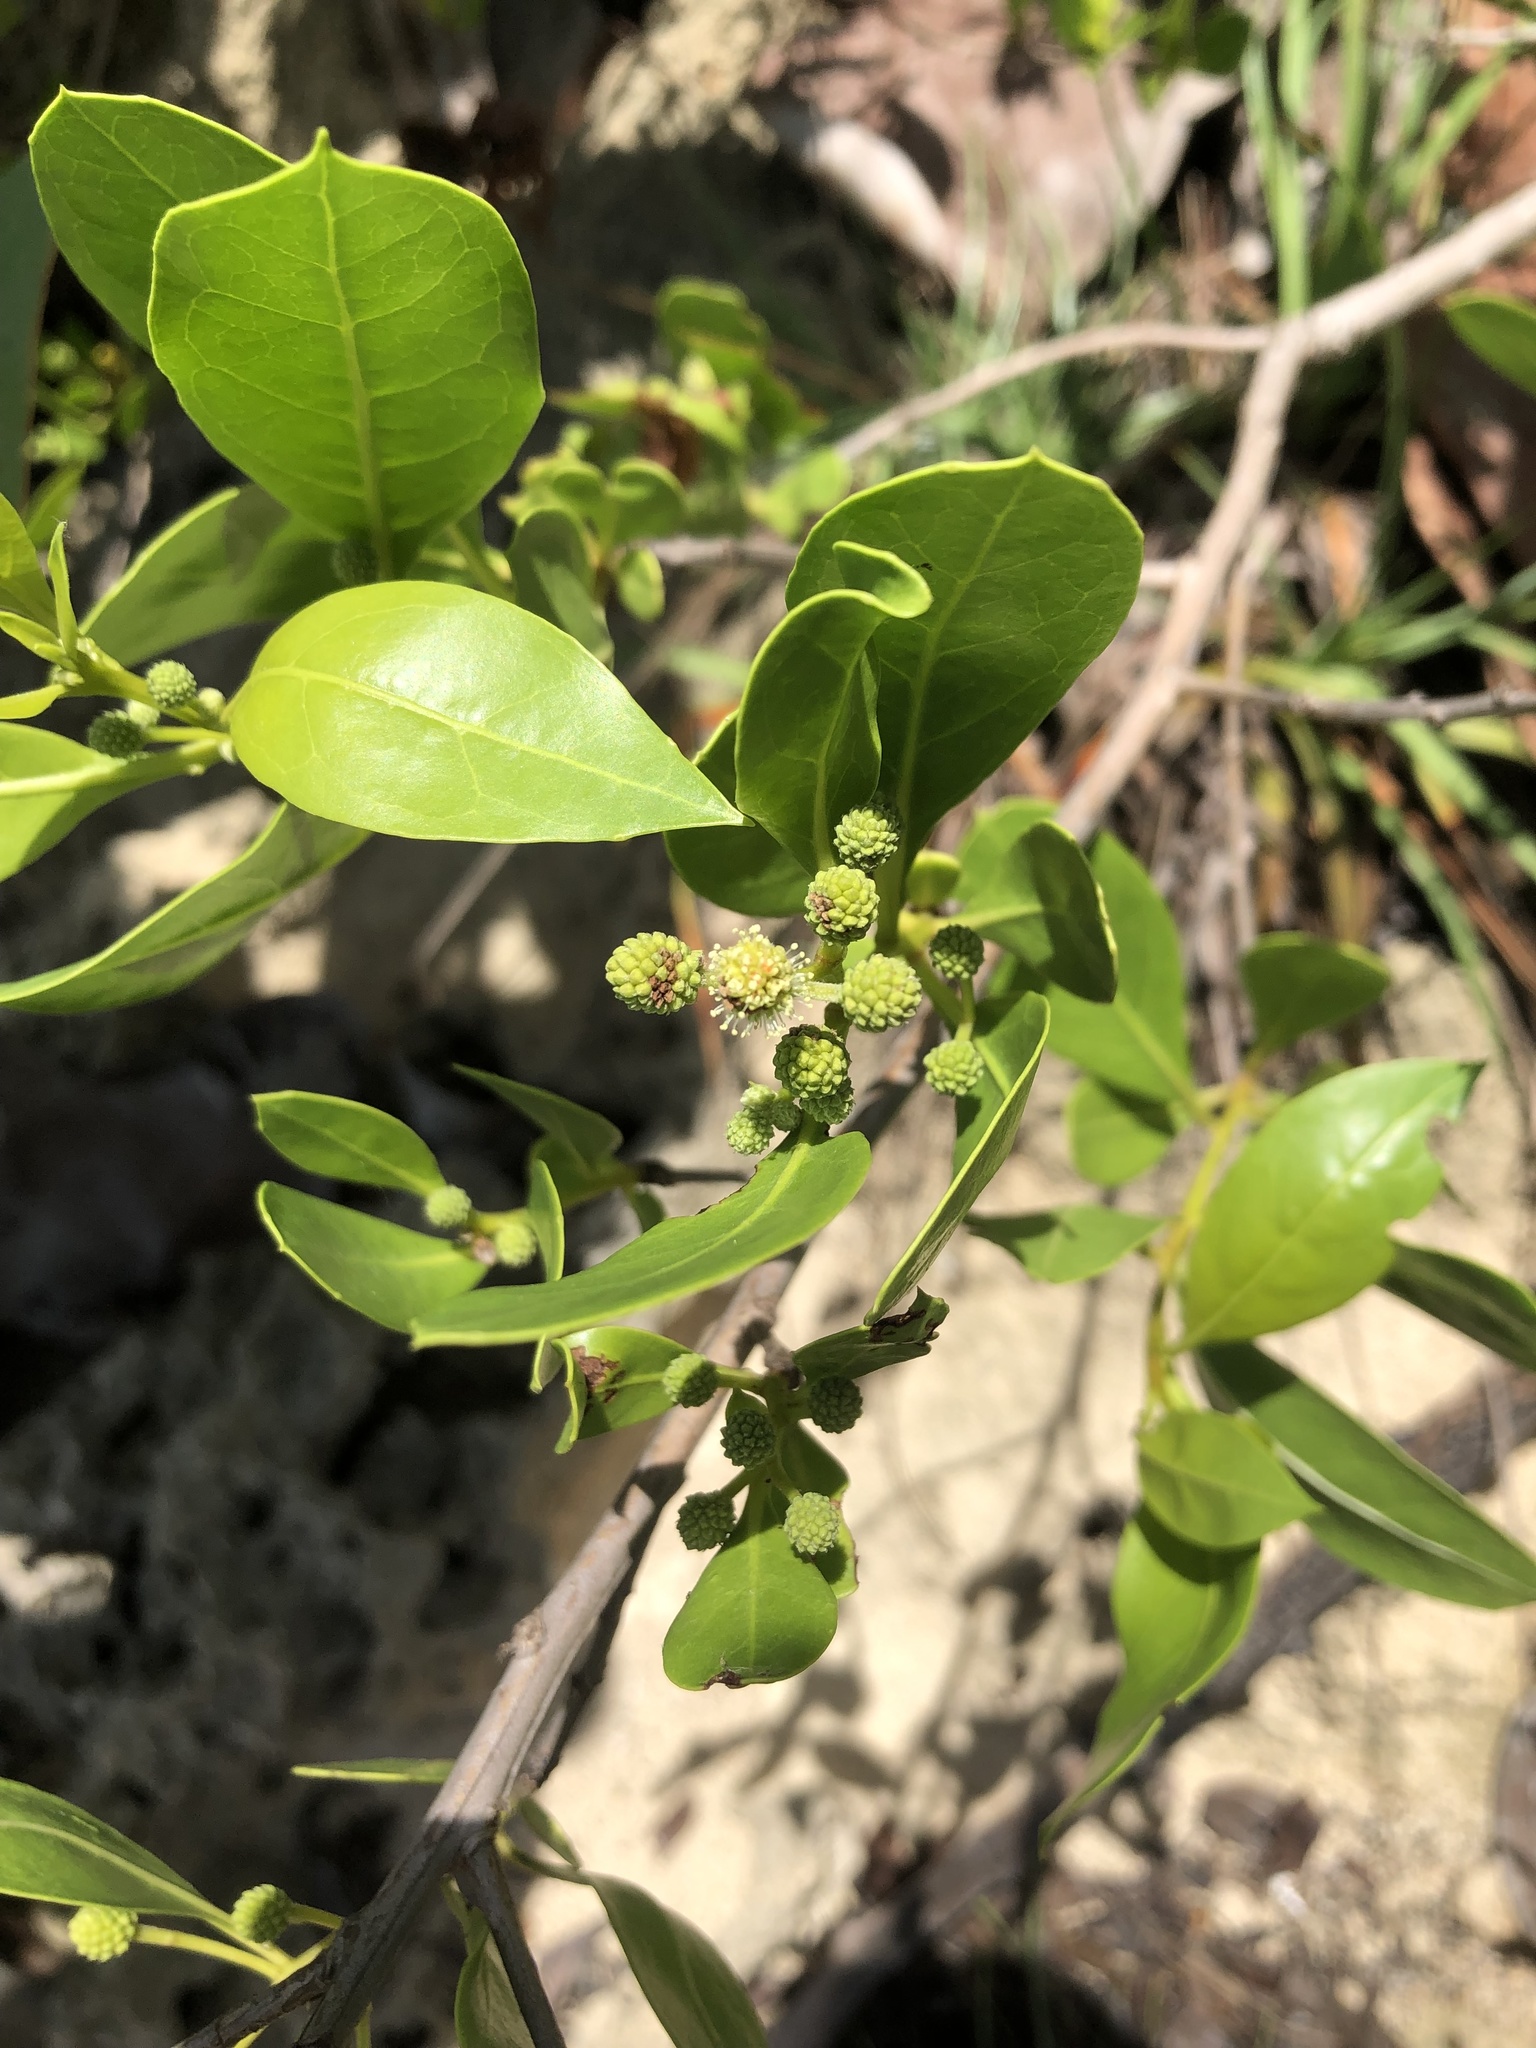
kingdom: Plantae
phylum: Tracheophyta
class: Magnoliopsida
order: Myrtales
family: Combretaceae
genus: Conocarpus
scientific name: Conocarpus erectus
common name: Button mangrove
